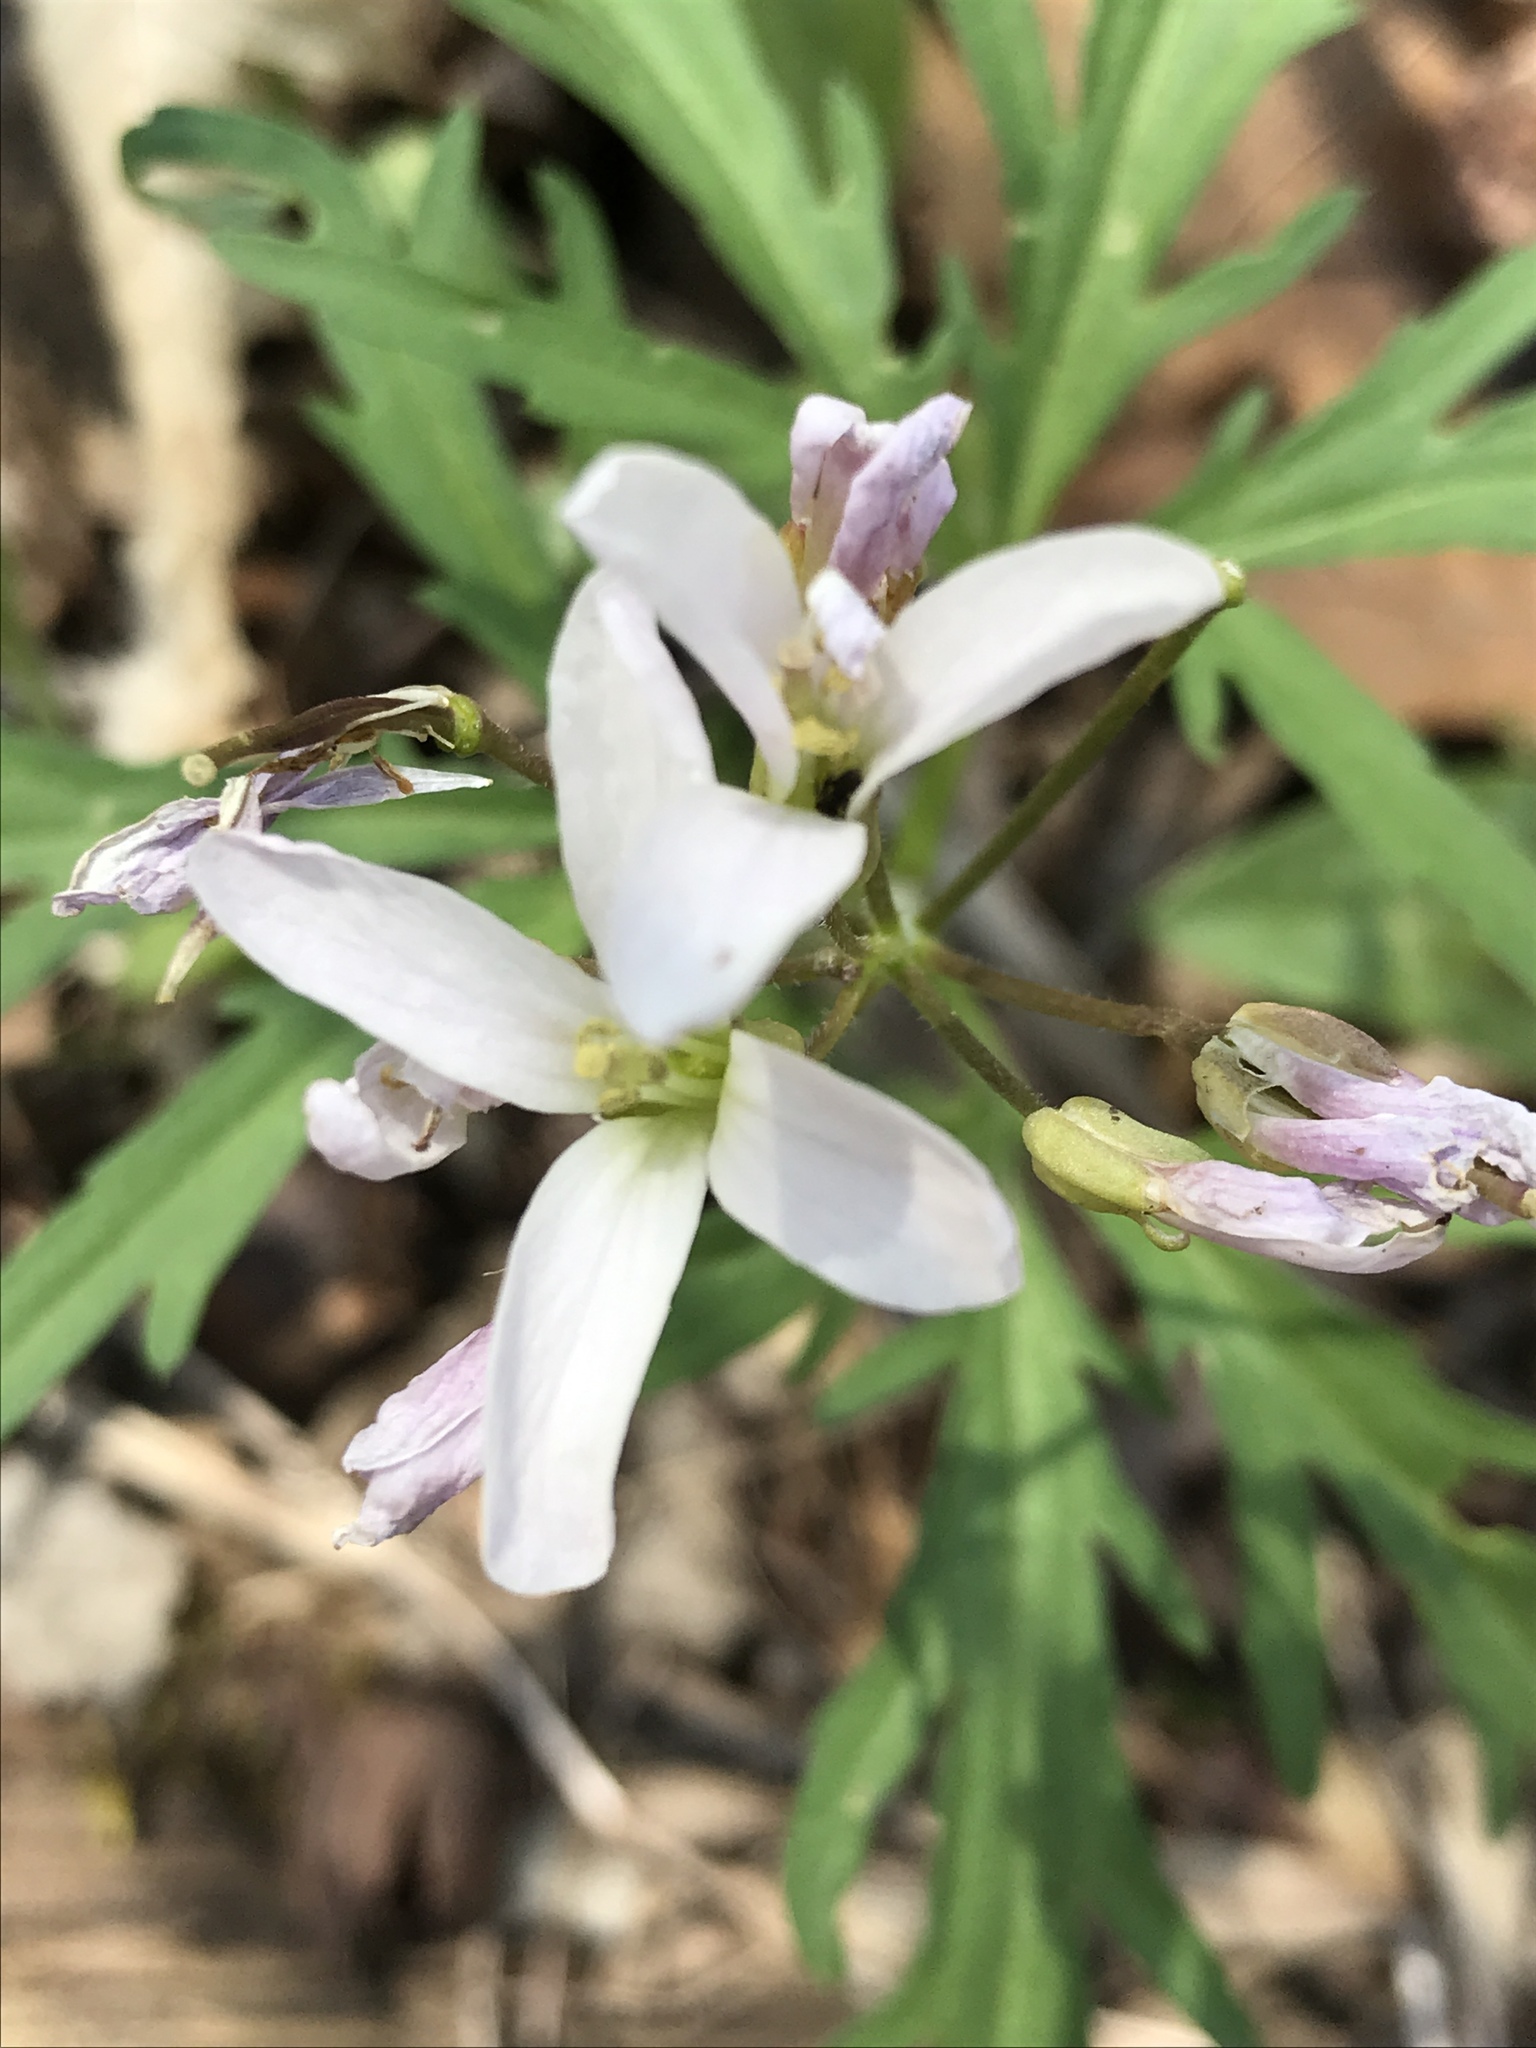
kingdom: Plantae
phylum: Tracheophyta
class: Magnoliopsida
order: Brassicales
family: Brassicaceae
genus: Cardamine
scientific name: Cardamine concatenata
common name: Cut-leaf toothcup
